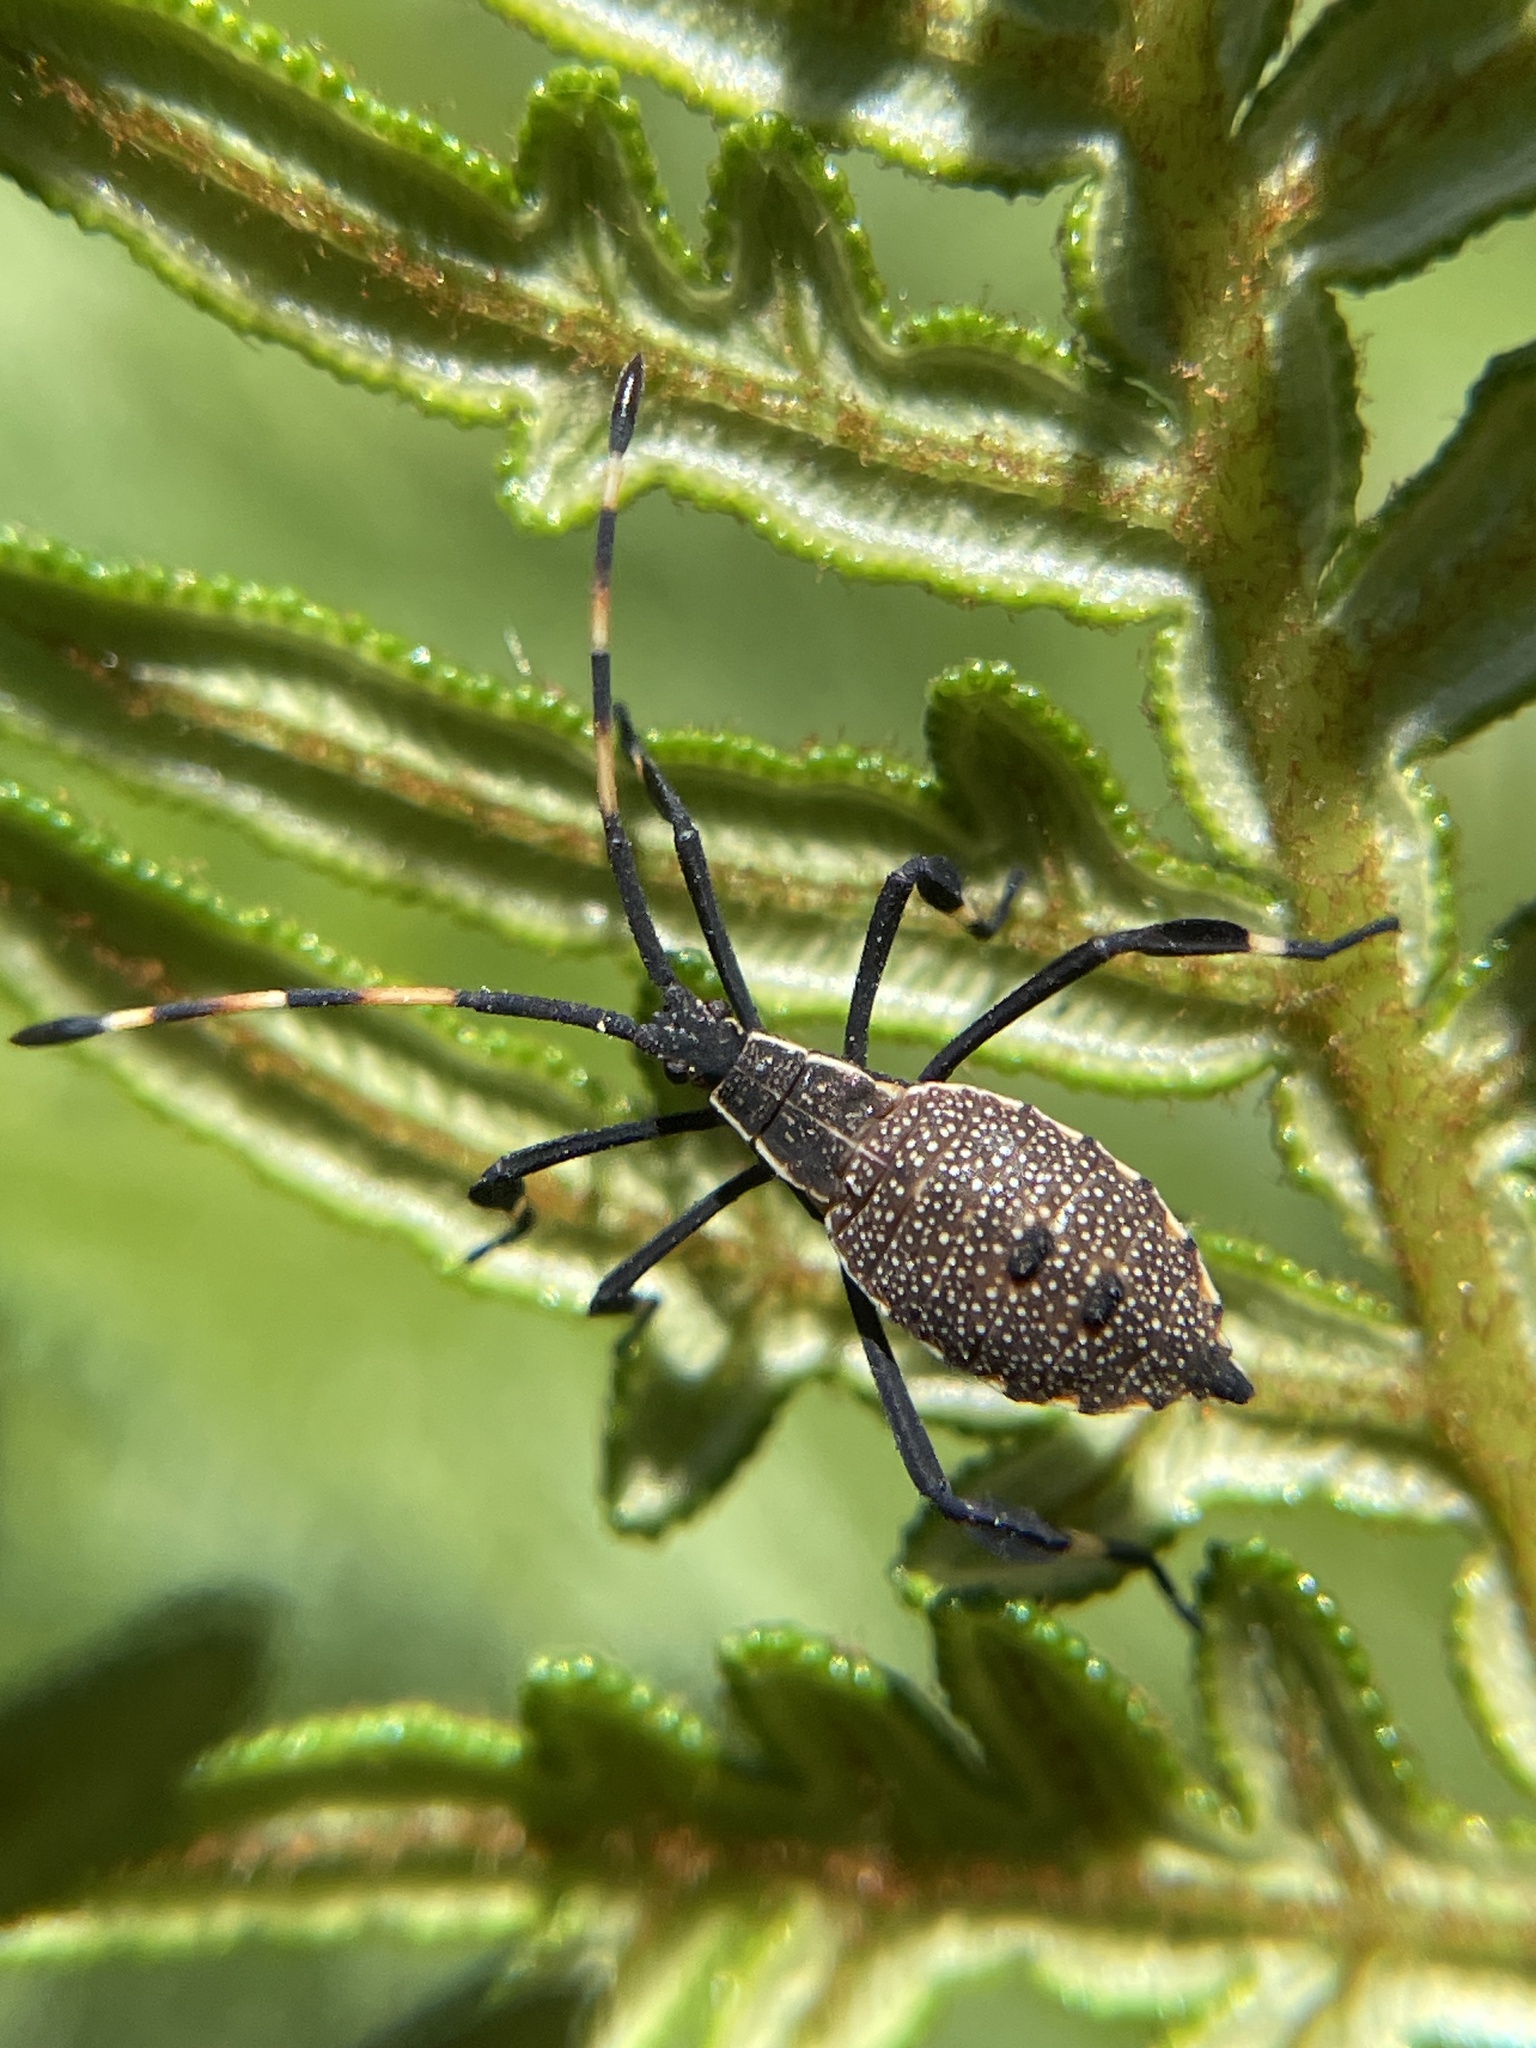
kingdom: Animalia
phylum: Arthropoda
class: Insecta
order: Hemiptera
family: Coreidae
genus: Gelonus
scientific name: Gelonus tasmanicus
